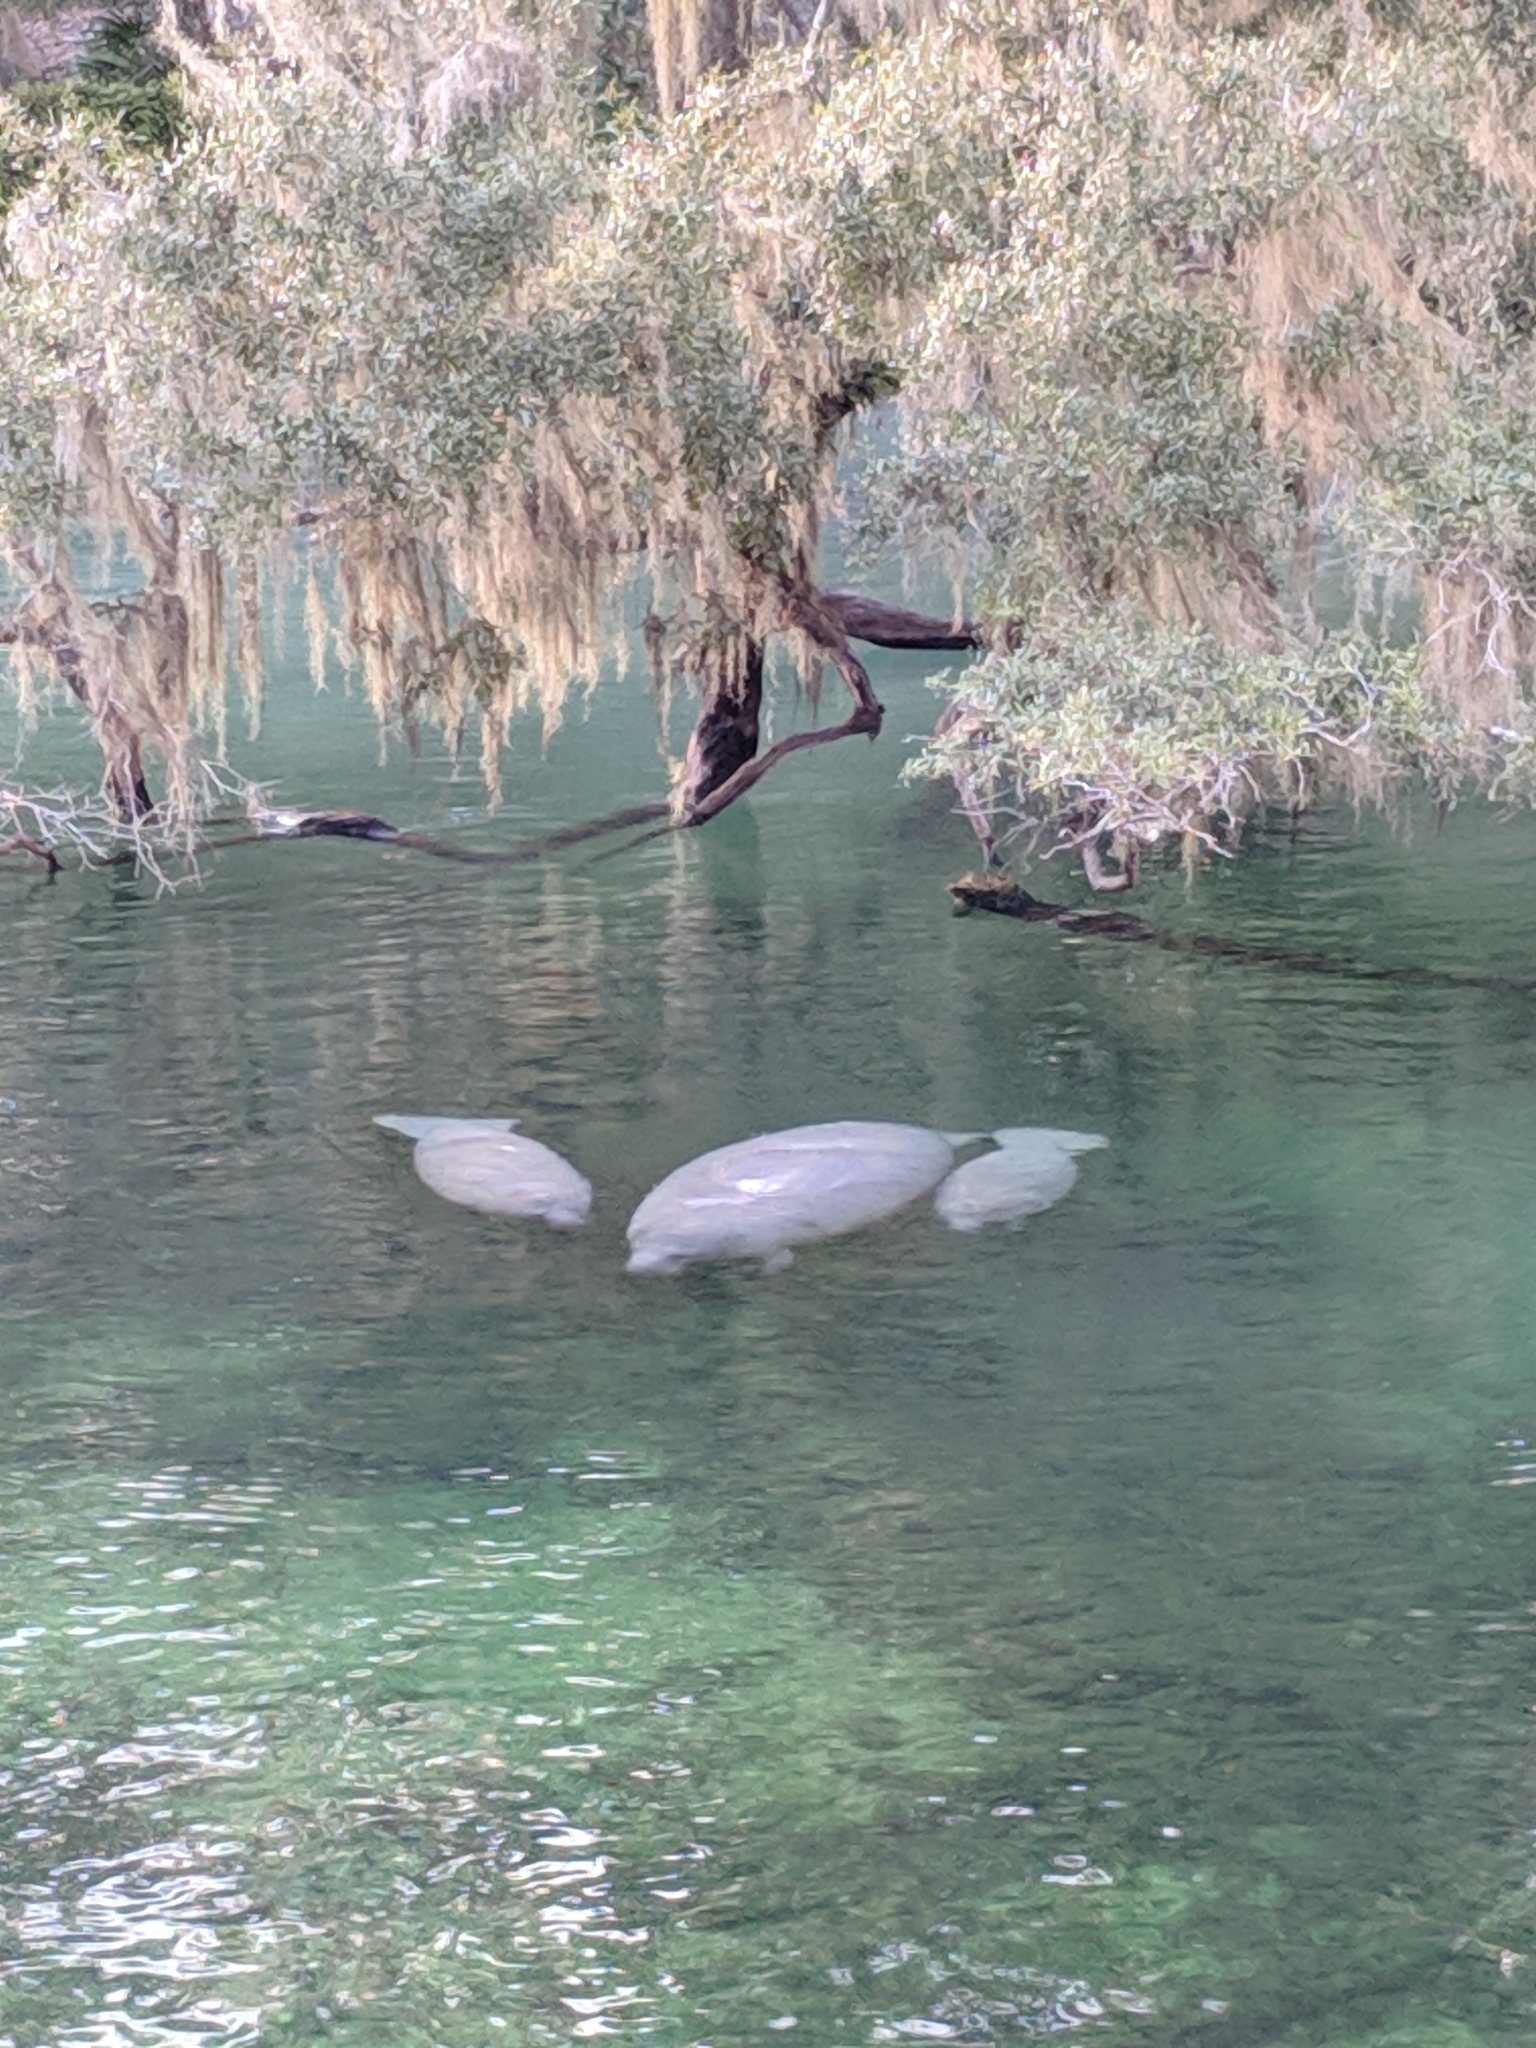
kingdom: Animalia
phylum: Chordata
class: Mammalia
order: Sirenia
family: Trichechidae
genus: Trichechus
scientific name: Trichechus manatus
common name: West indian manatee
